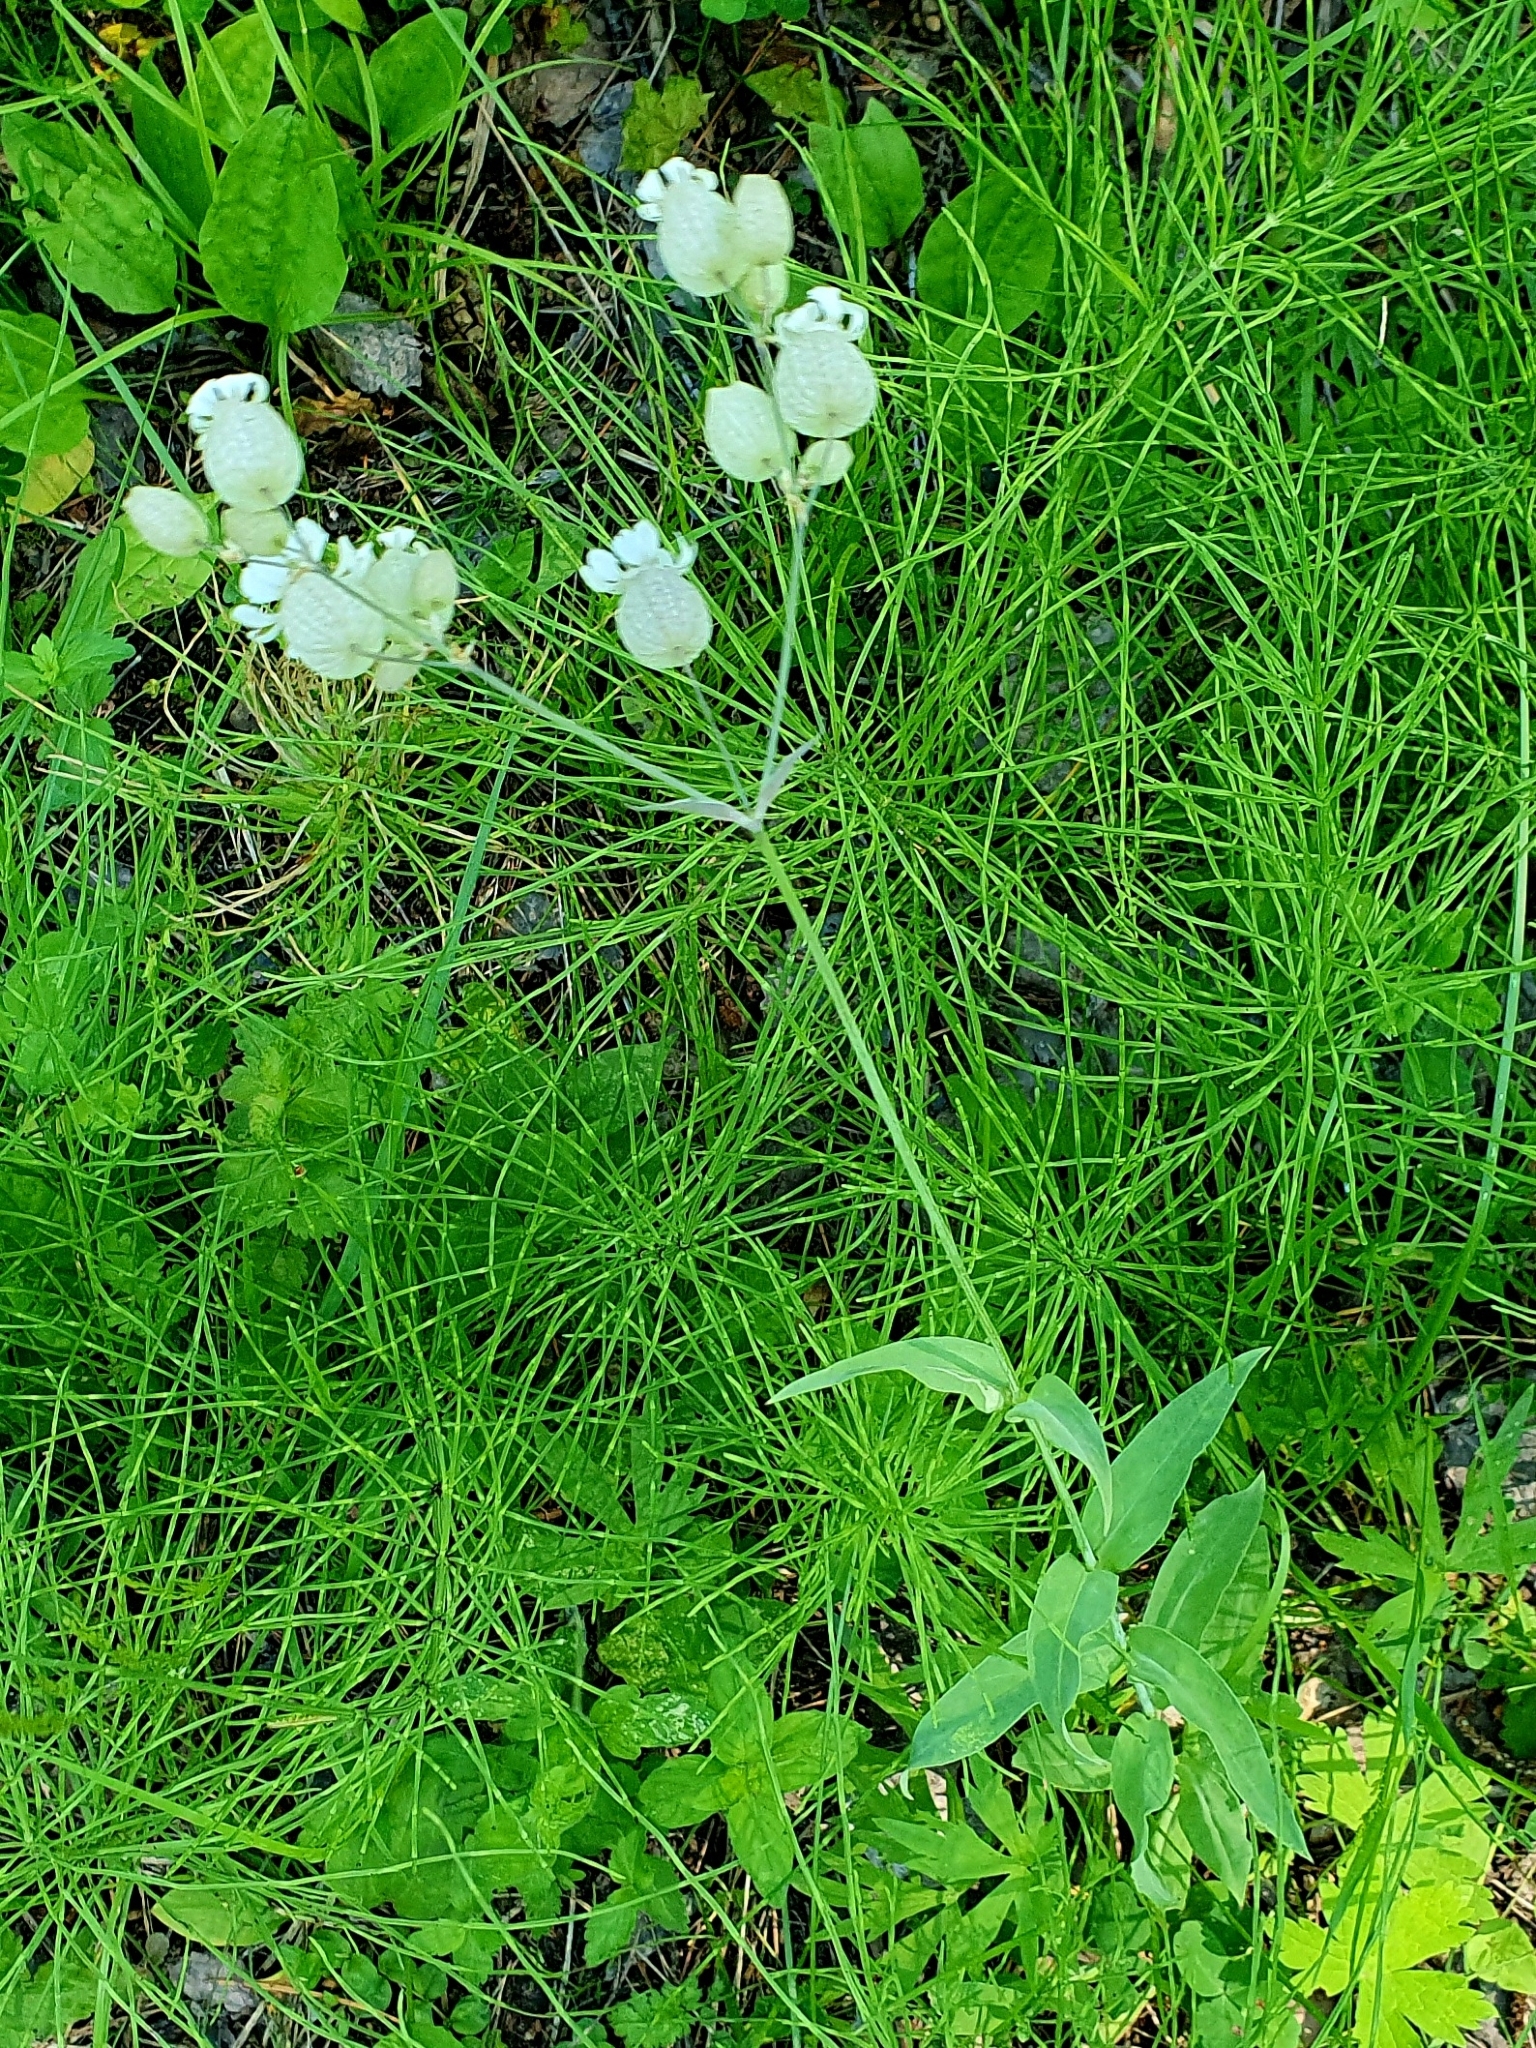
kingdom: Plantae
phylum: Tracheophyta
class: Magnoliopsida
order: Caryophyllales
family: Caryophyllaceae
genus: Silene
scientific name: Silene vulgaris
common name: Bladder campion
